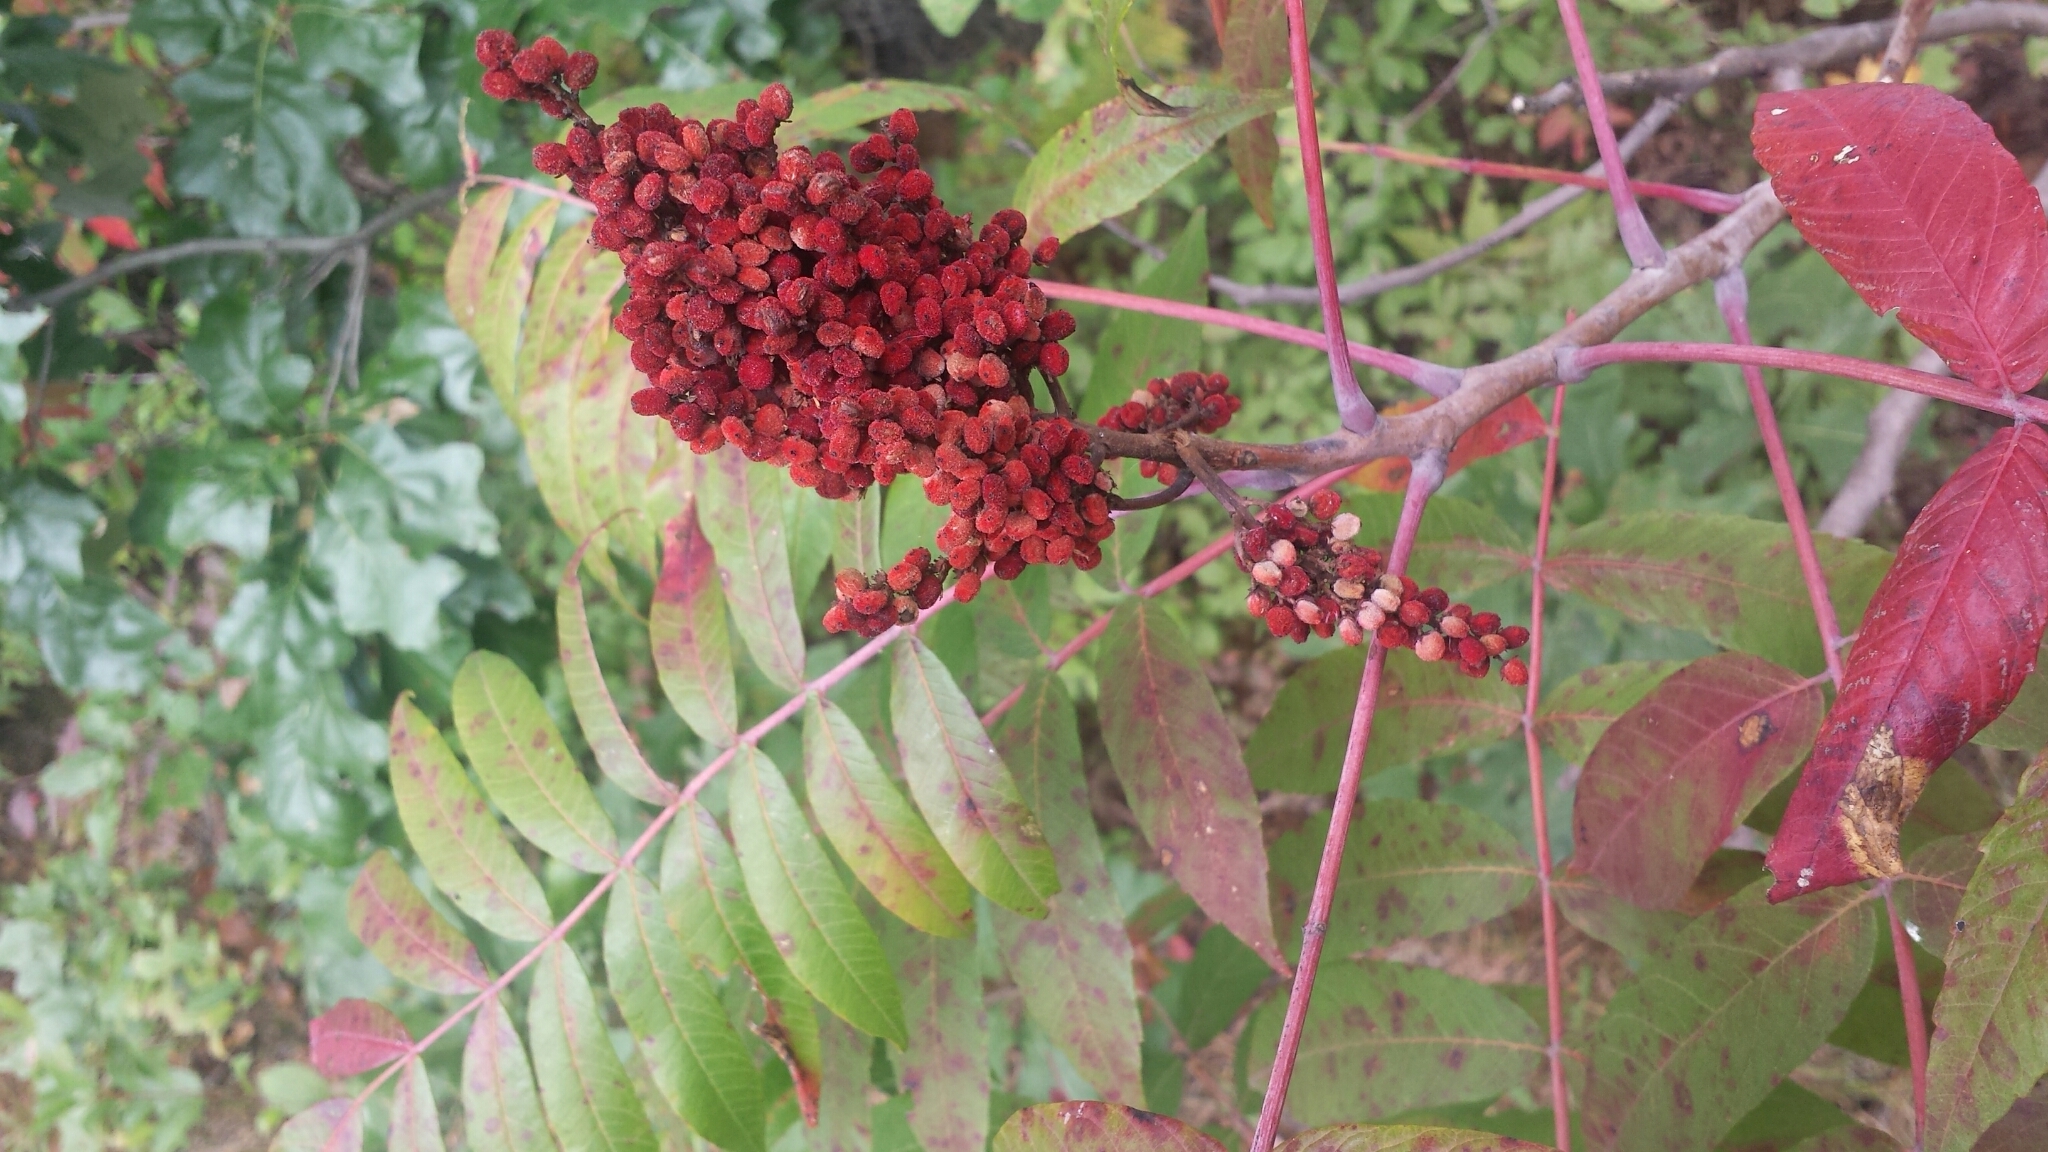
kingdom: Plantae
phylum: Tracheophyta
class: Magnoliopsida
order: Sapindales
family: Anacardiaceae
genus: Rhus
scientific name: Rhus glabra
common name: Scarlet sumac
